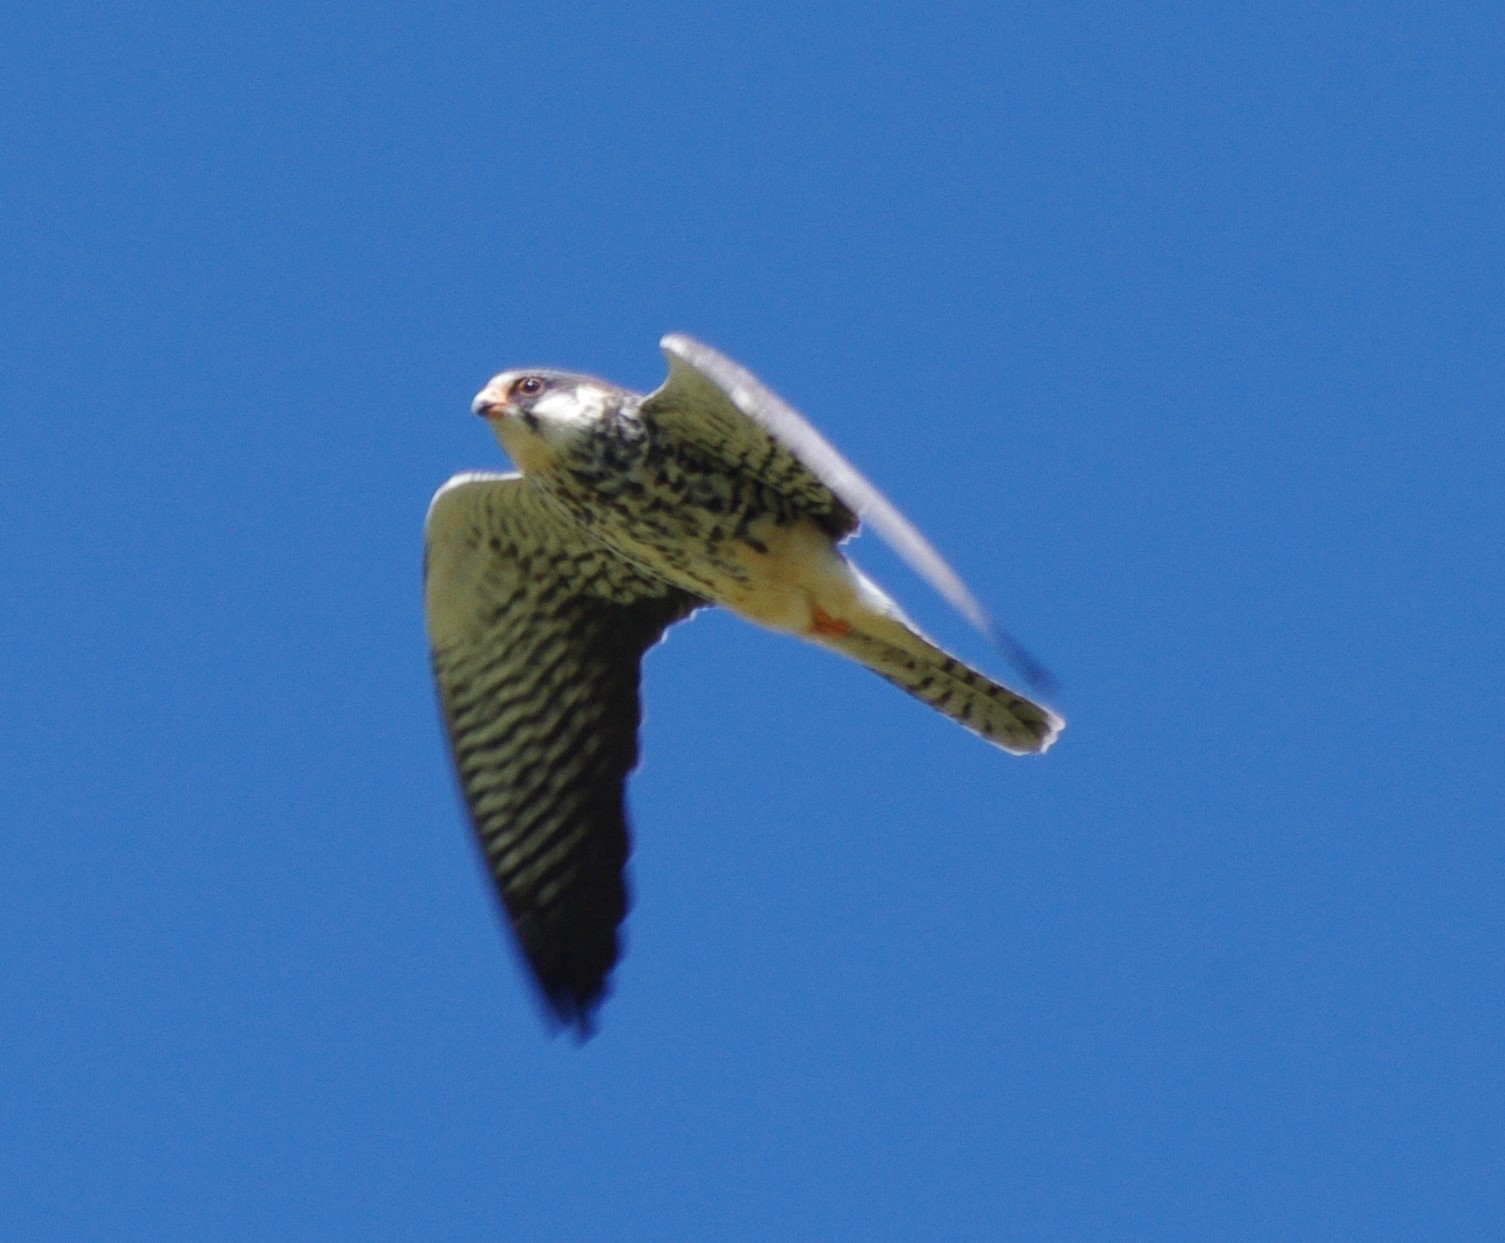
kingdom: Animalia
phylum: Chordata
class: Aves
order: Falconiformes
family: Falconidae
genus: Falco
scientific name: Falco amurensis
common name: Amur falcon
